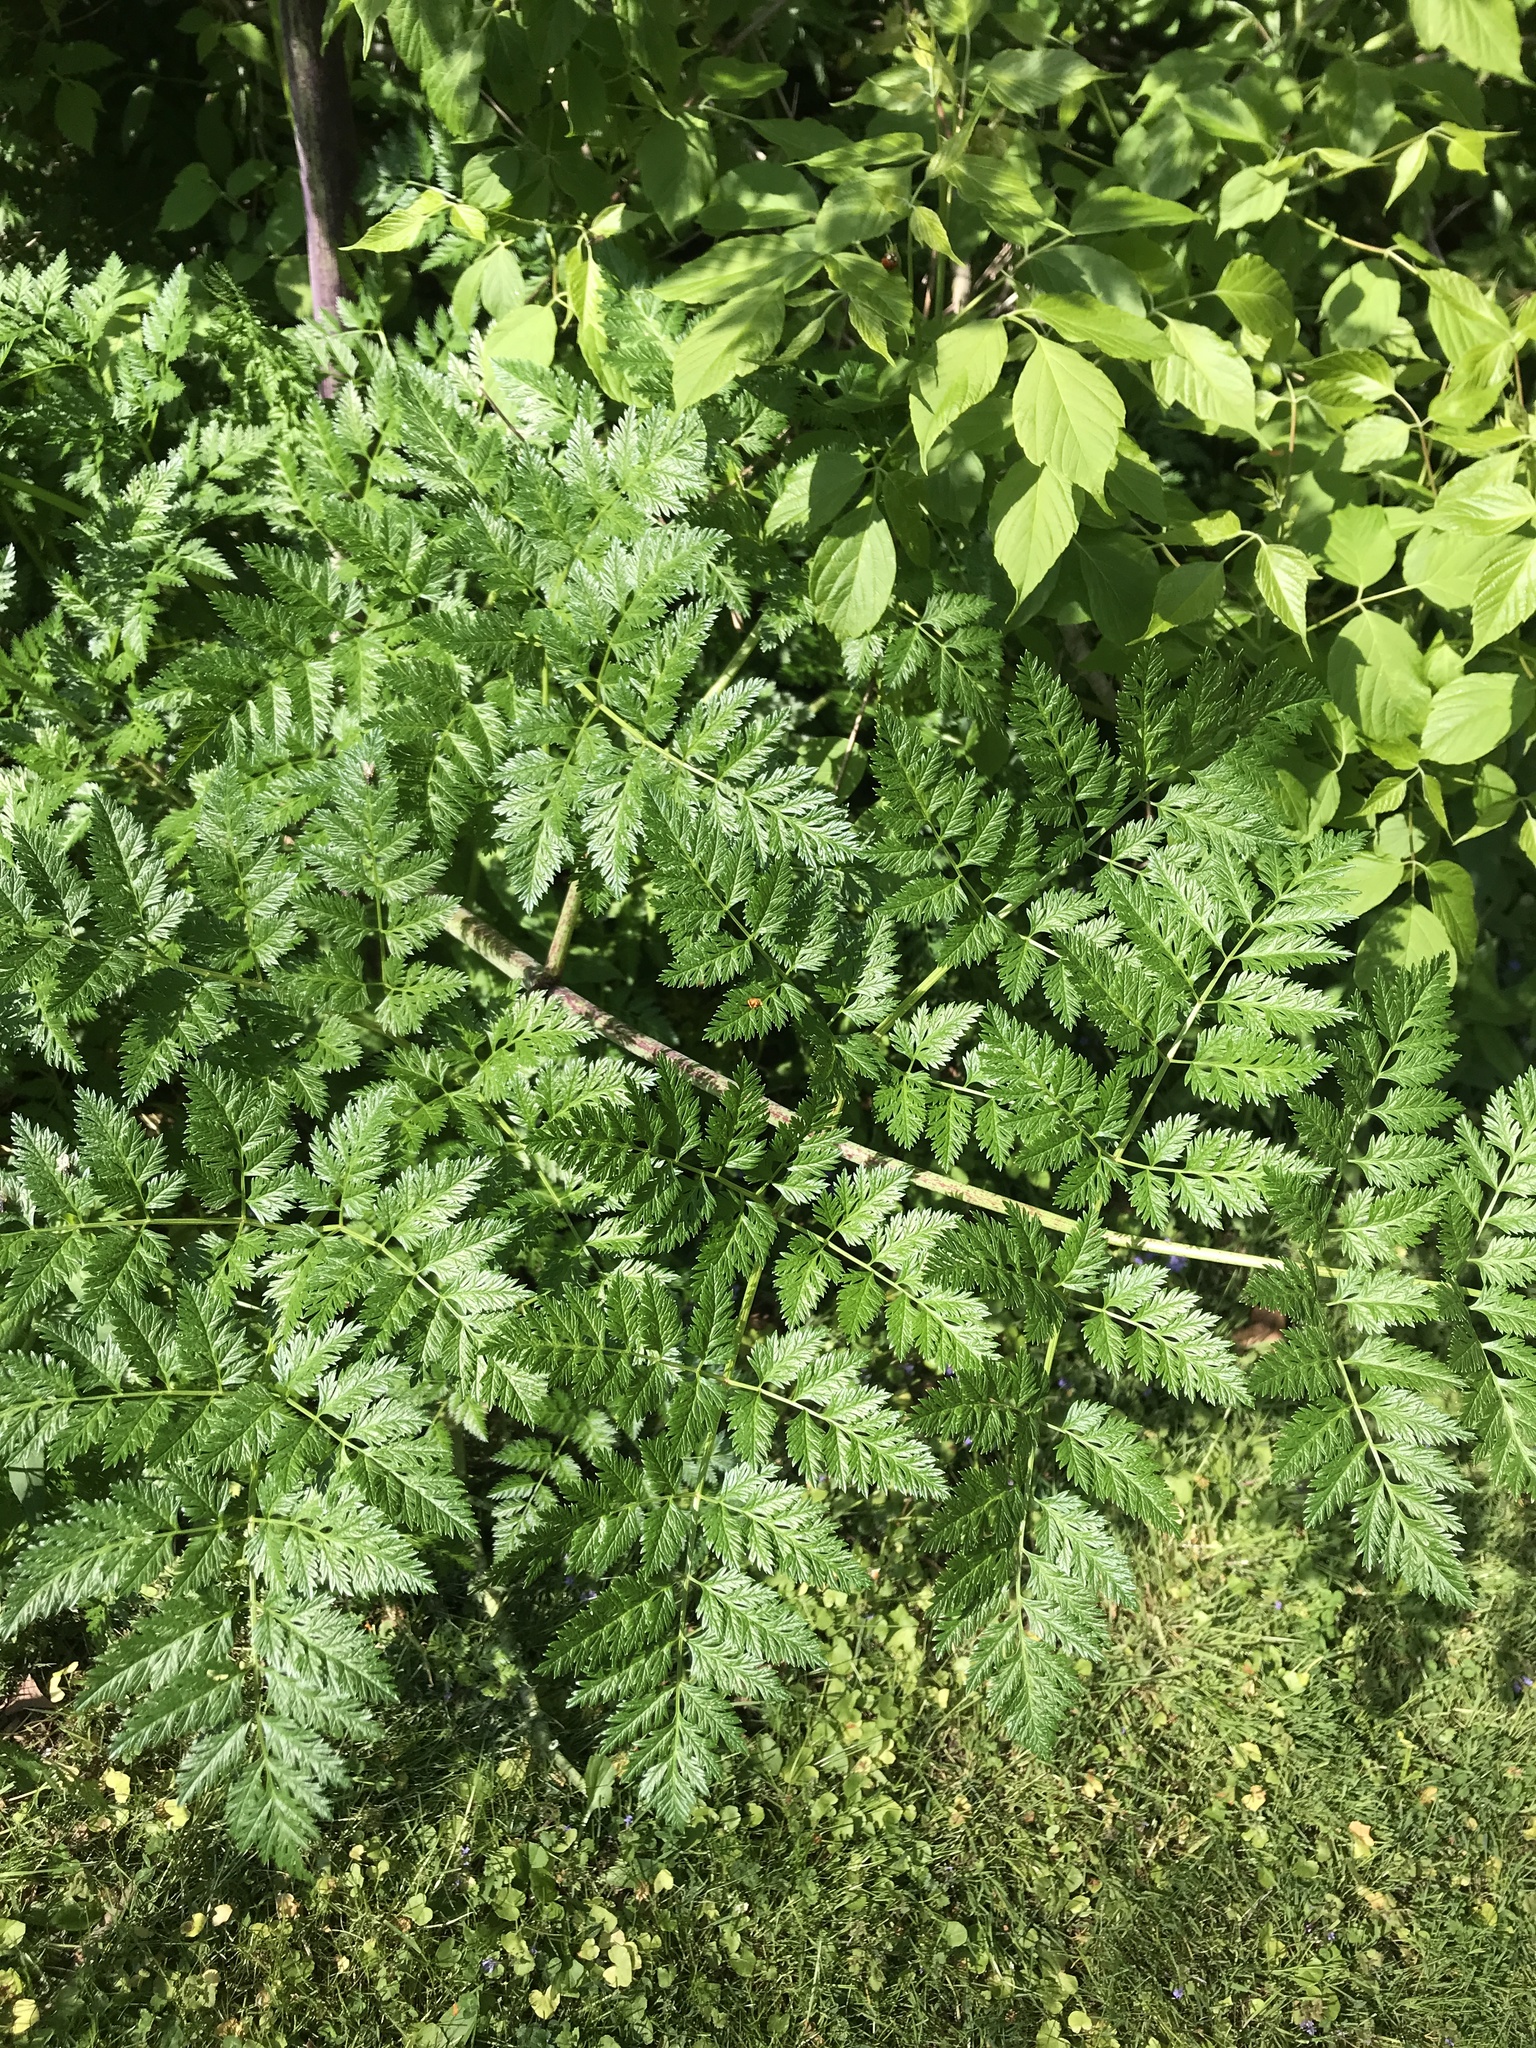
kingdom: Plantae
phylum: Tracheophyta
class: Magnoliopsida
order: Apiales
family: Apiaceae
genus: Conium
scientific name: Conium maculatum
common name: Hemlock
